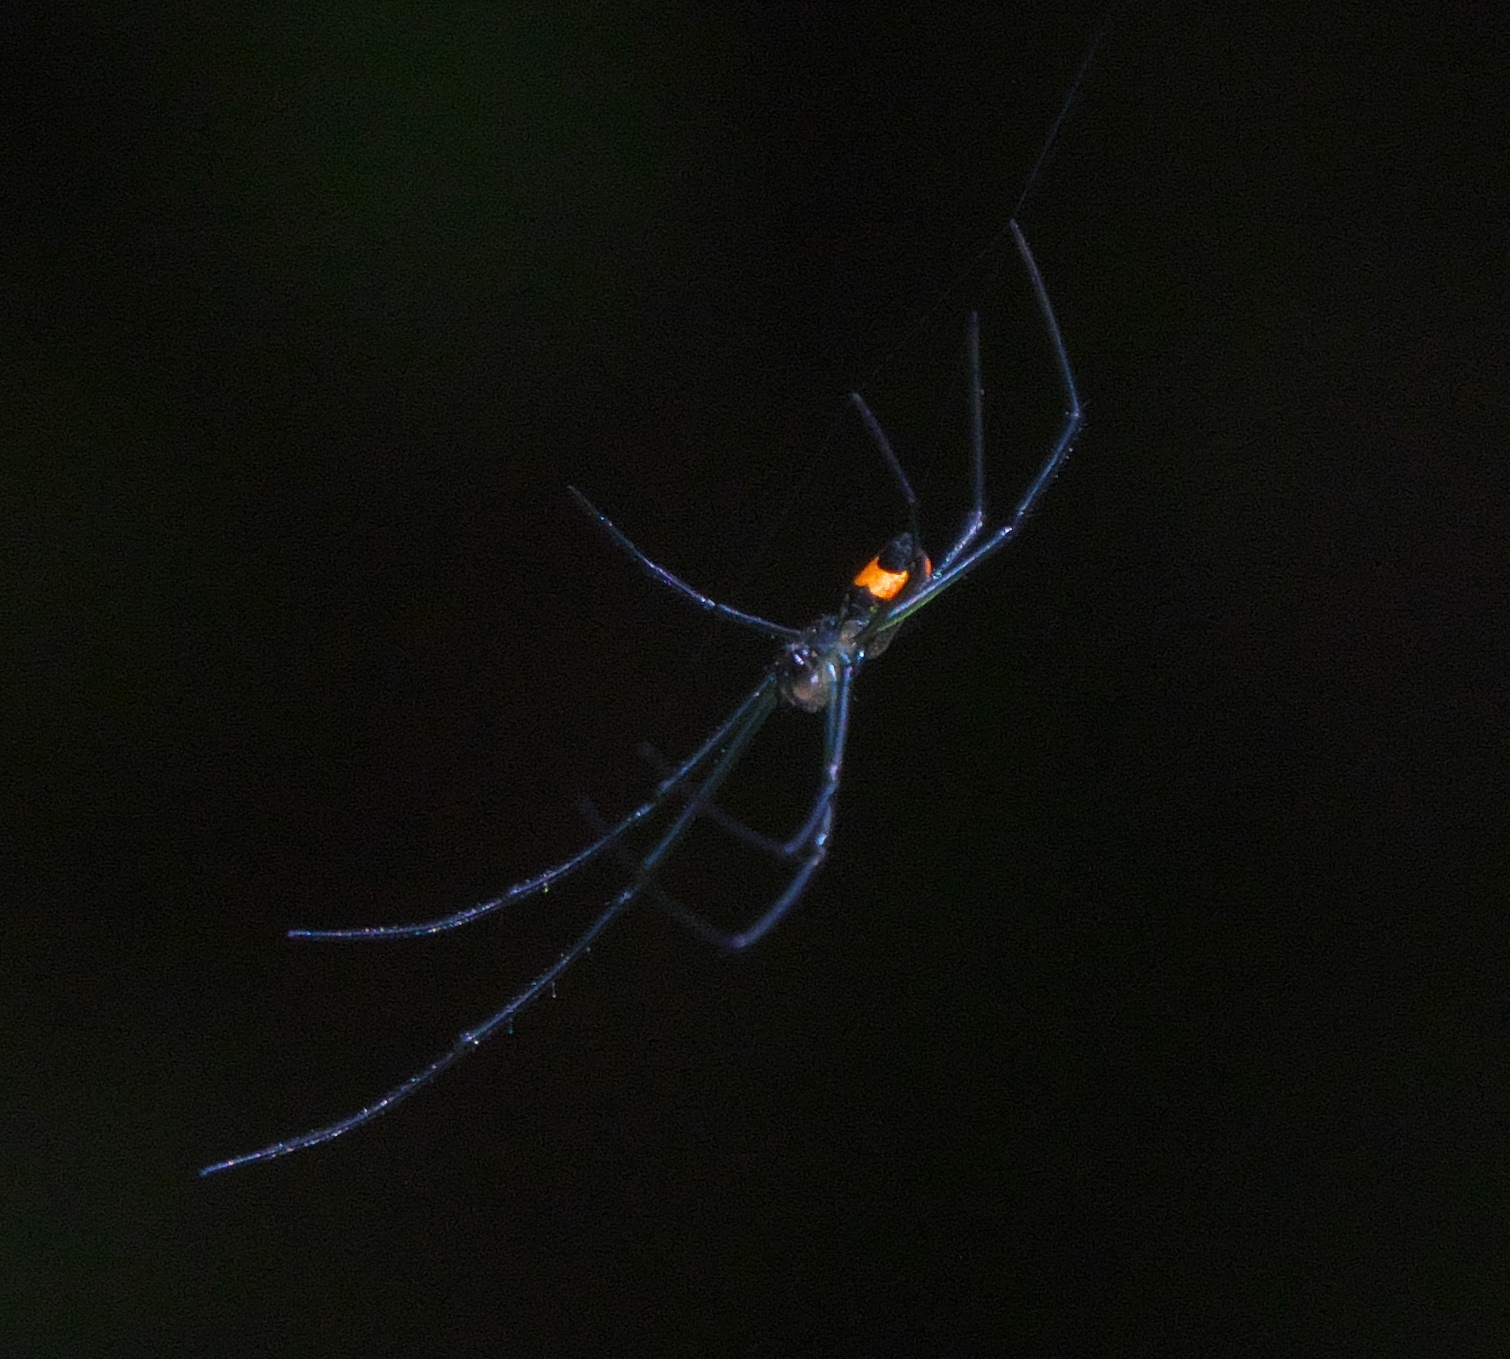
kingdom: Animalia
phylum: Arthropoda
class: Arachnida
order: Araneae
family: Tetragnathidae
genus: Leucauge
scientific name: Leucauge hebridisiana
